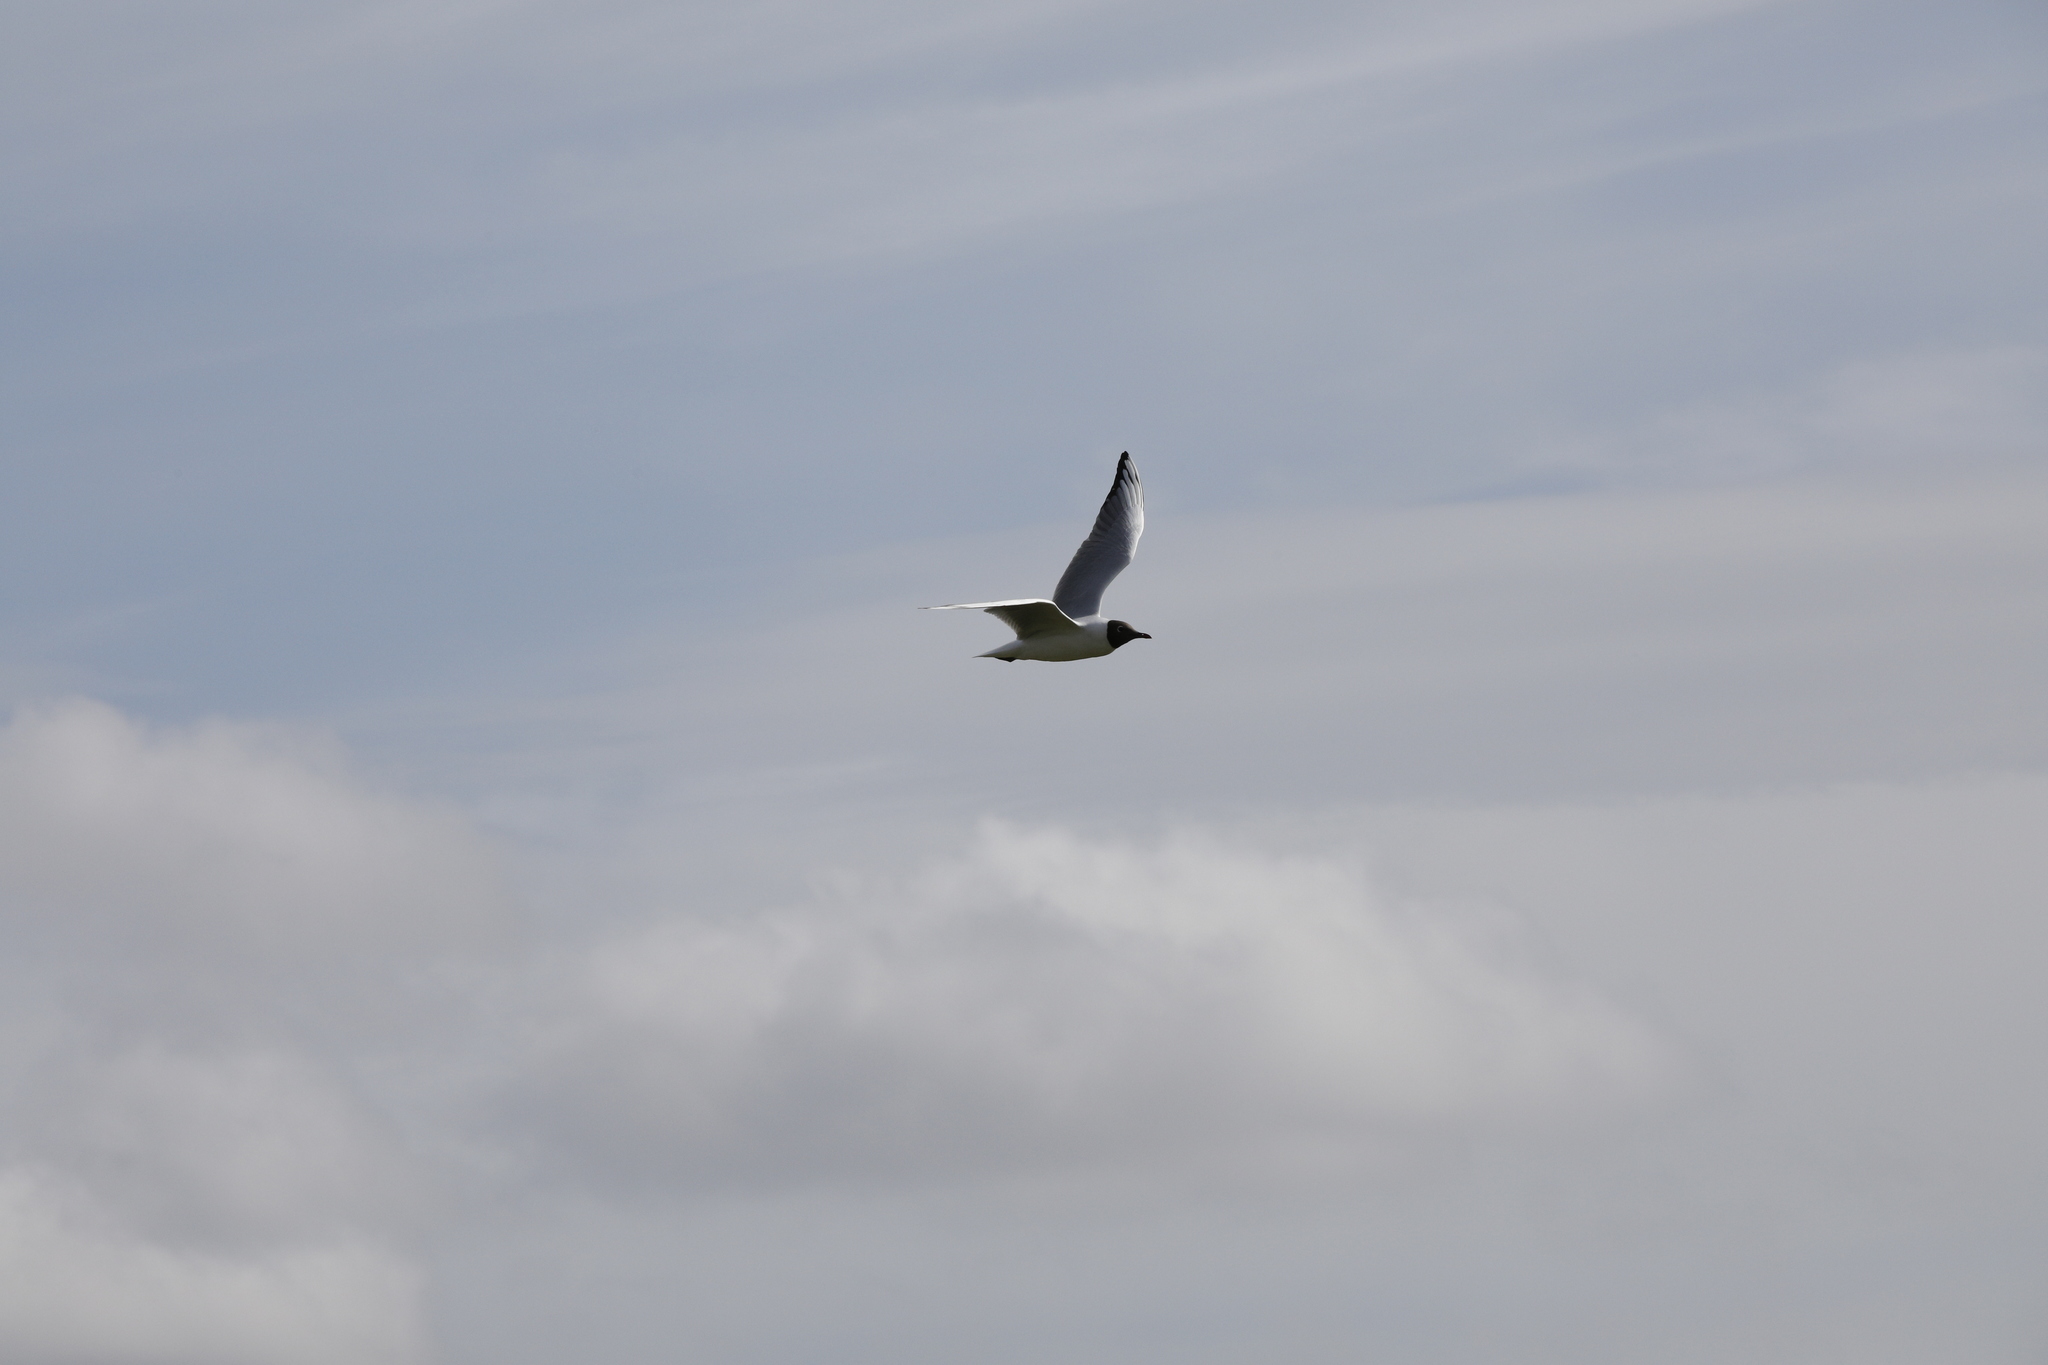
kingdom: Animalia
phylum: Chordata
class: Aves
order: Charadriiformes
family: Laridae
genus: Chroicocephalus
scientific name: Chroicocephalus ridibundus
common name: Black-headed gull
